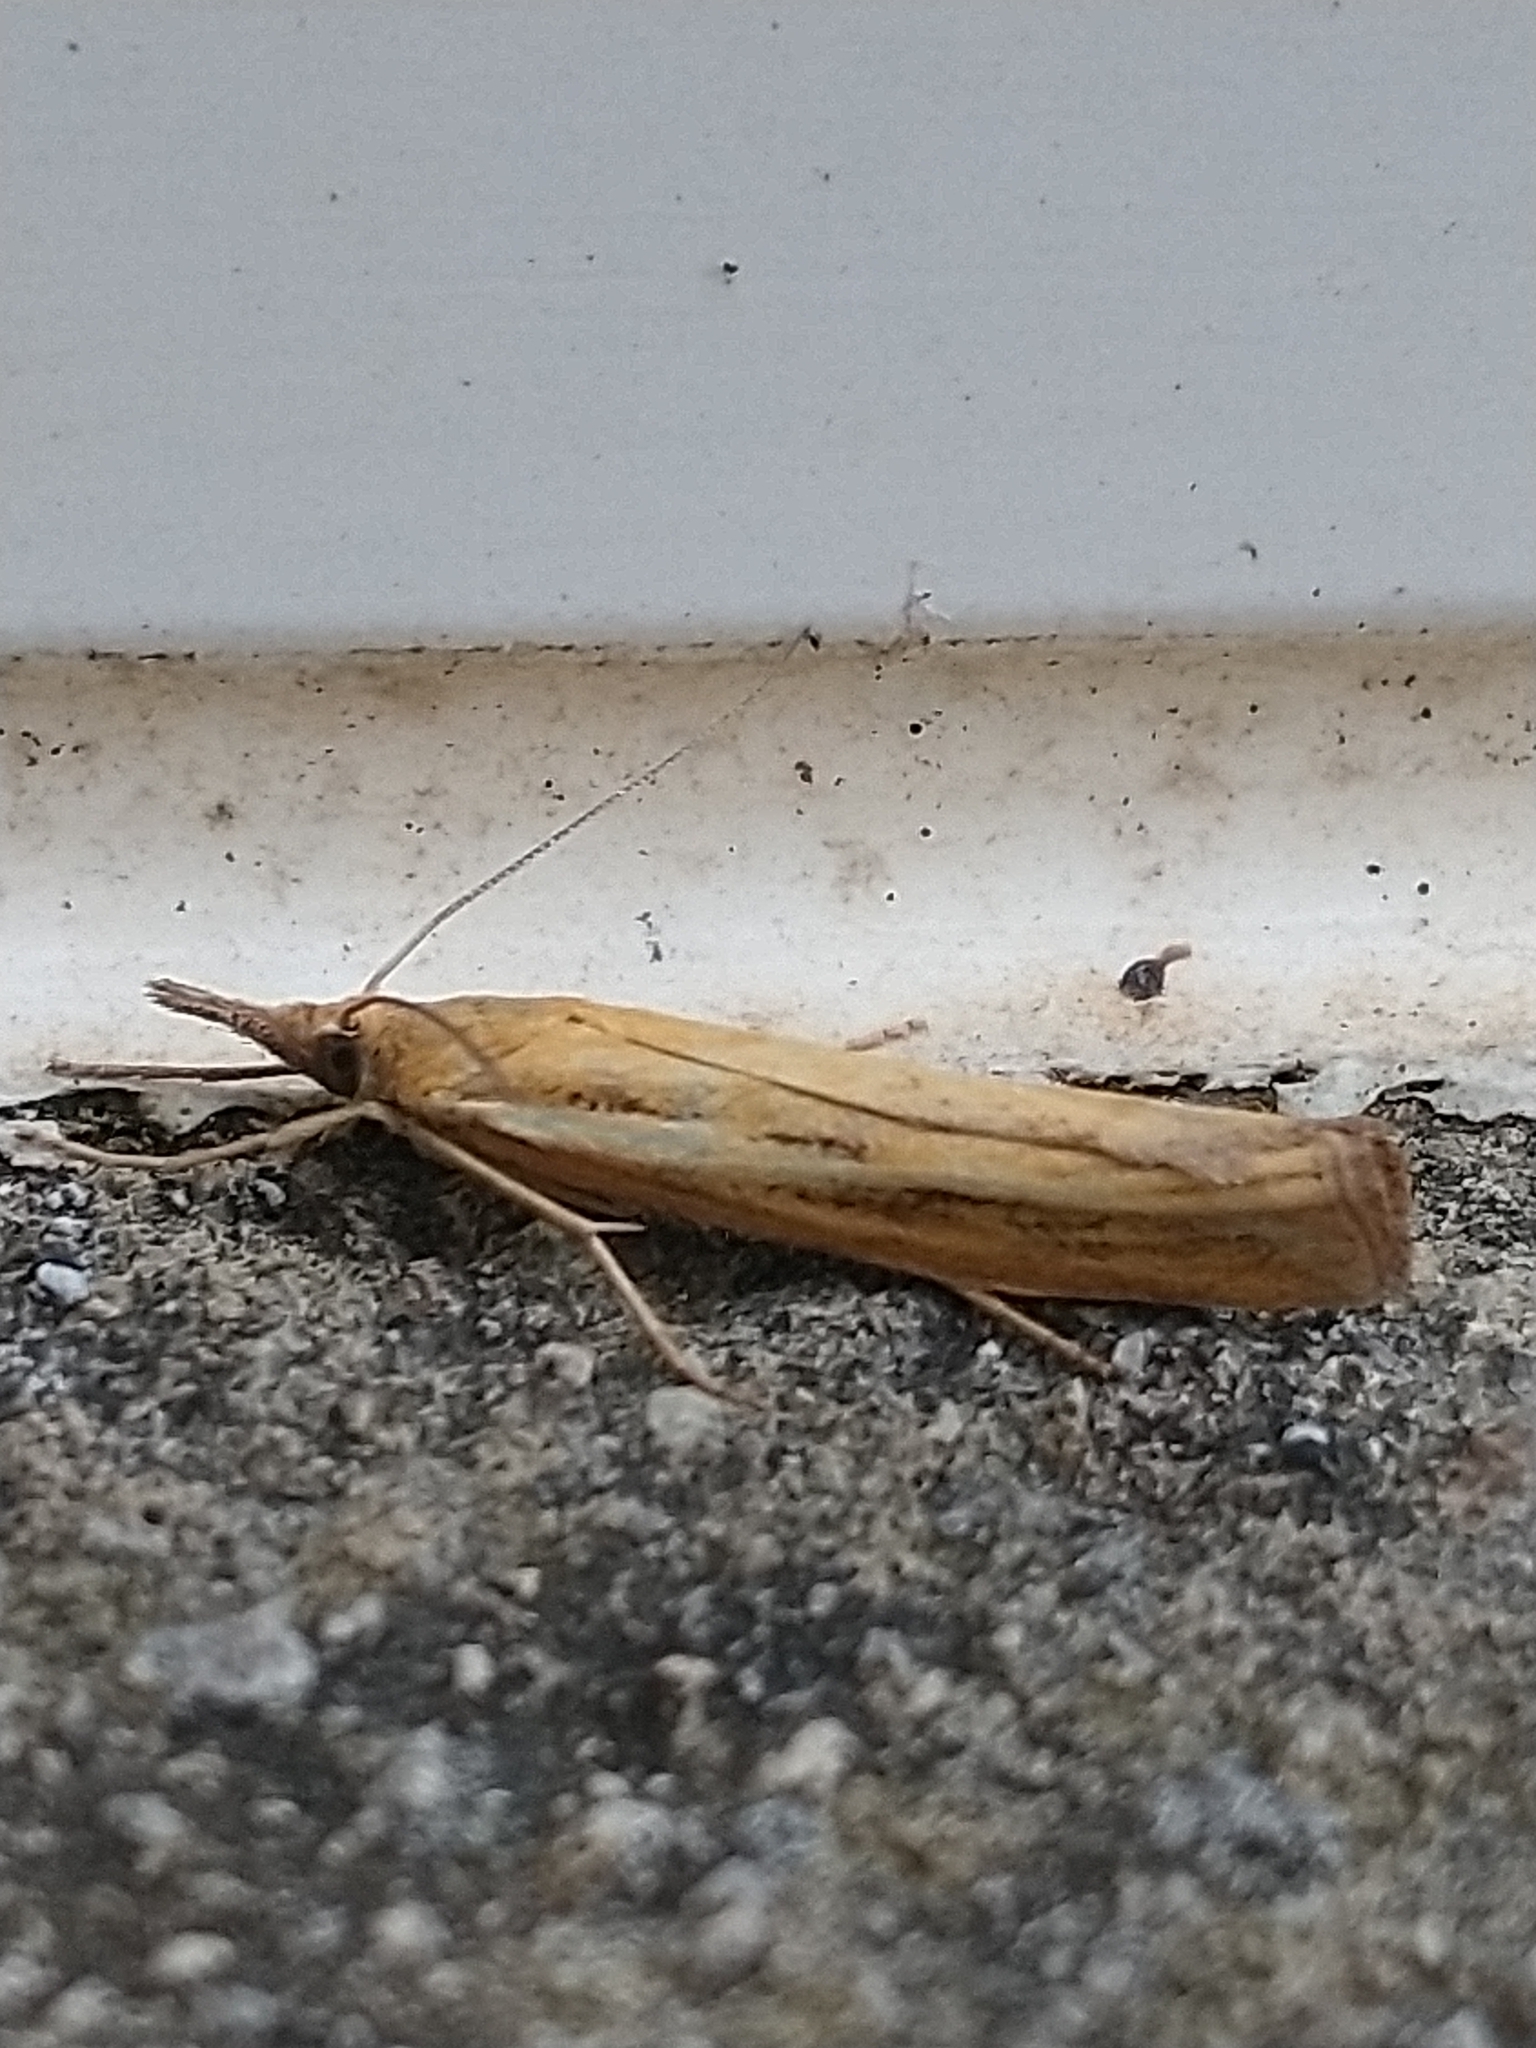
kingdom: Animalia
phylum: Arthropoda
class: Insecta
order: Lepidoptera
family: Crambidae
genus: Agriphila
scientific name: Agriphila tristellus
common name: Common grass-veneer
